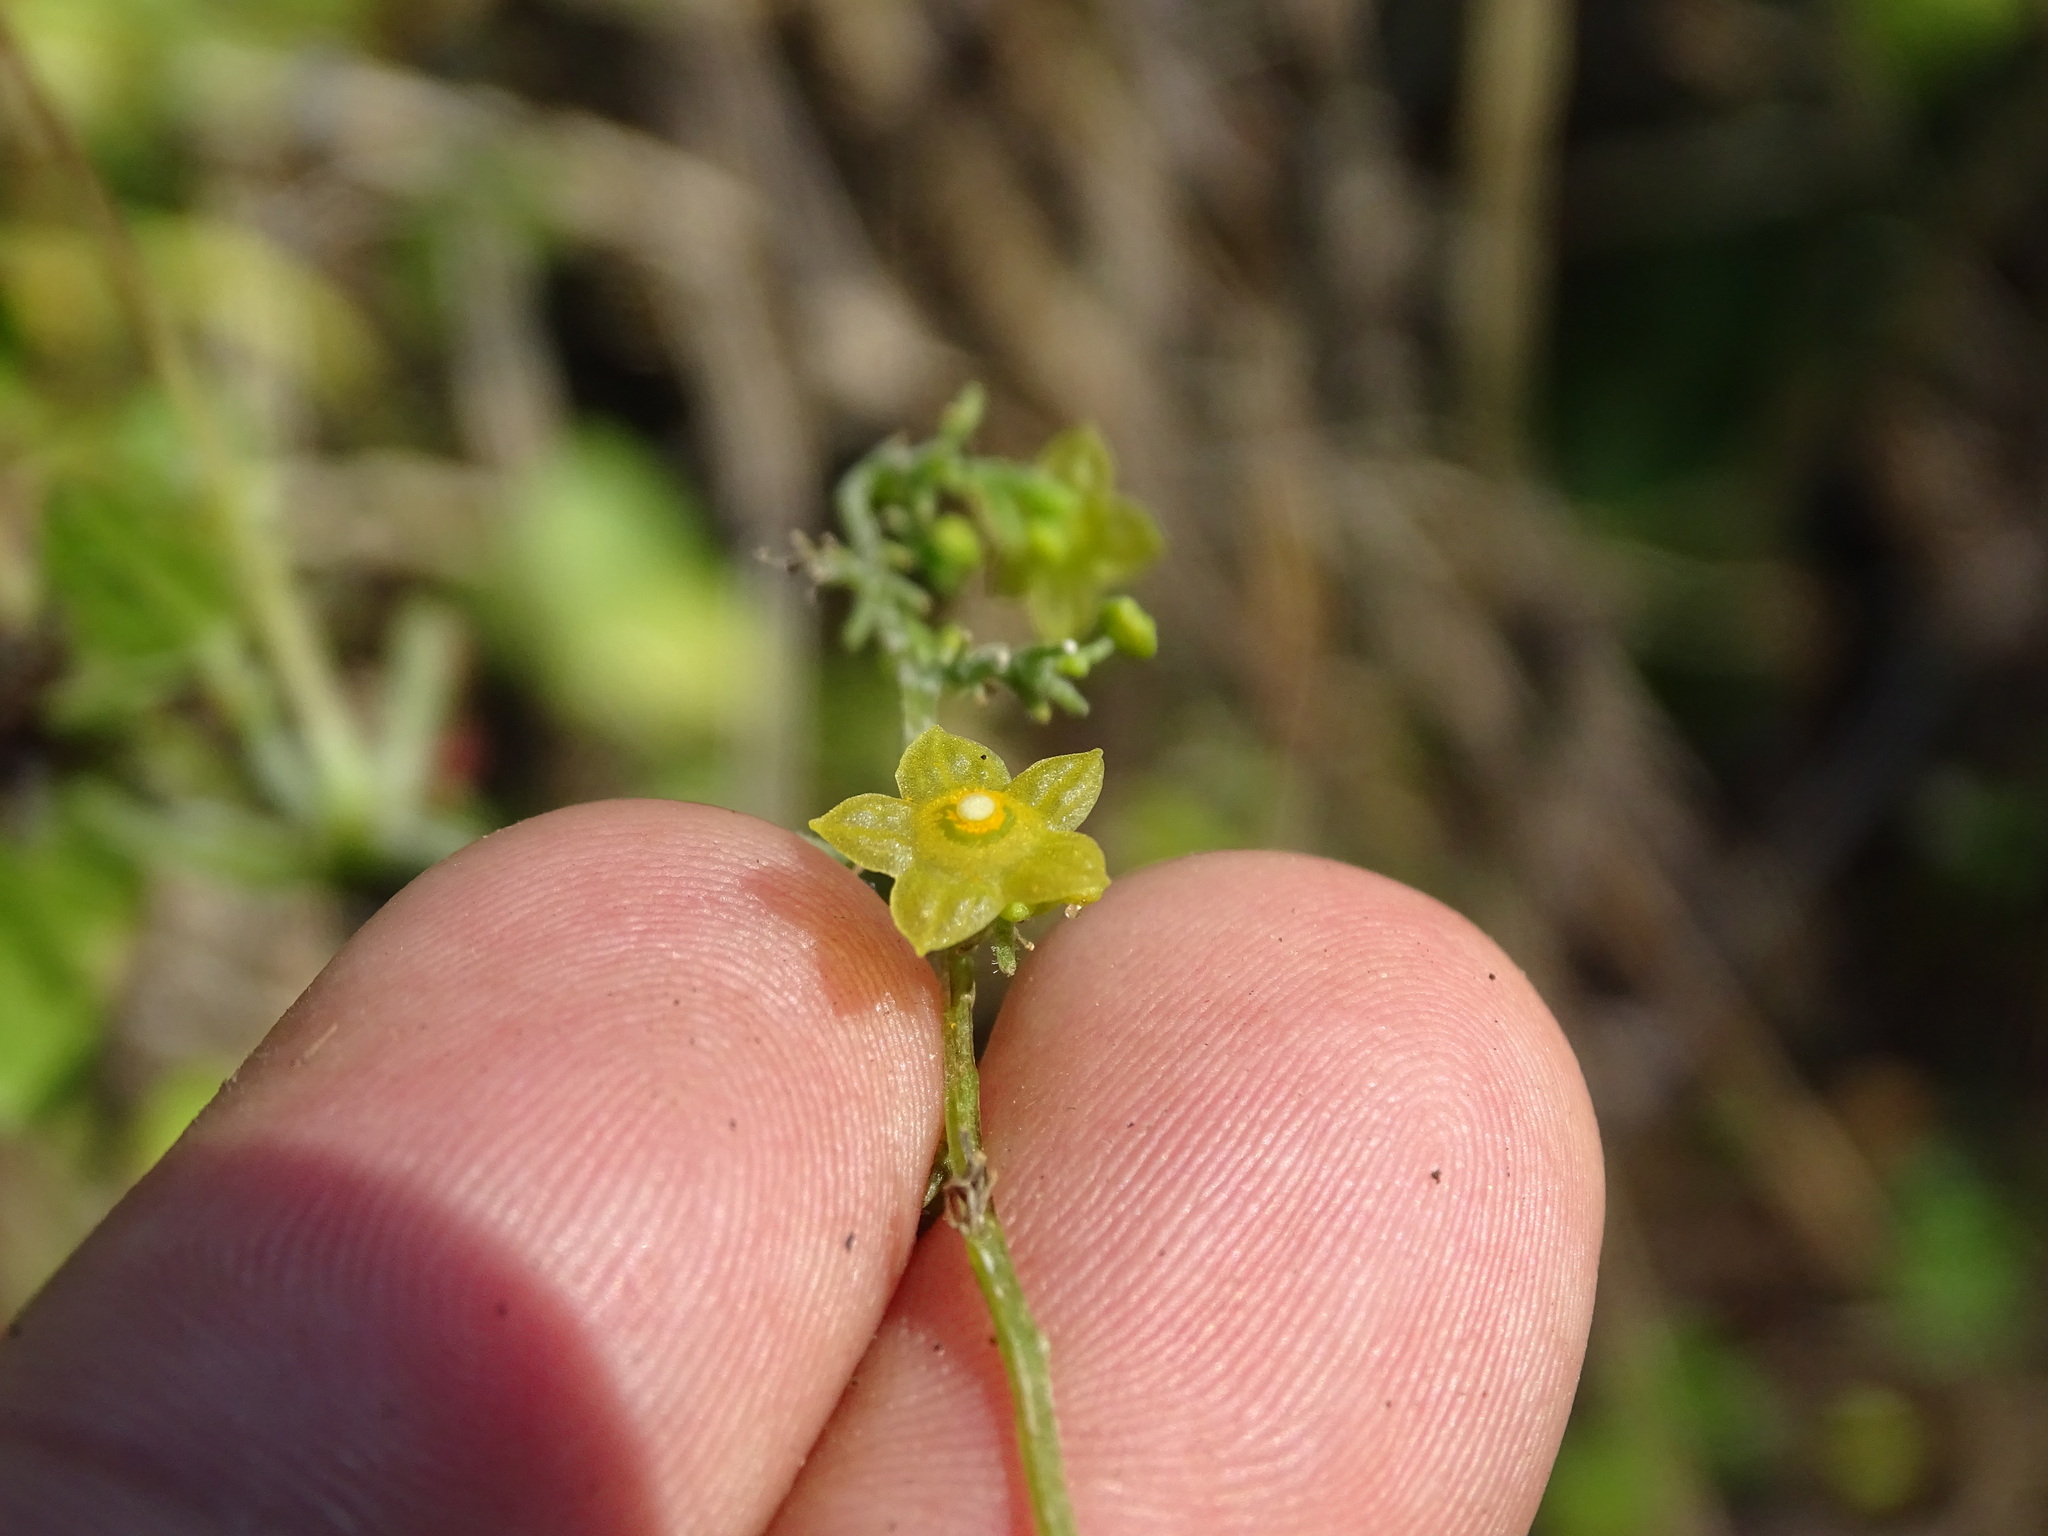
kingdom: Plantae
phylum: Tracheophyta
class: Magnoliopsida
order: Cucurbitales
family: Cucurbitaceae
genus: Cyclanthera
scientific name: Cyclanthera ribiflora
